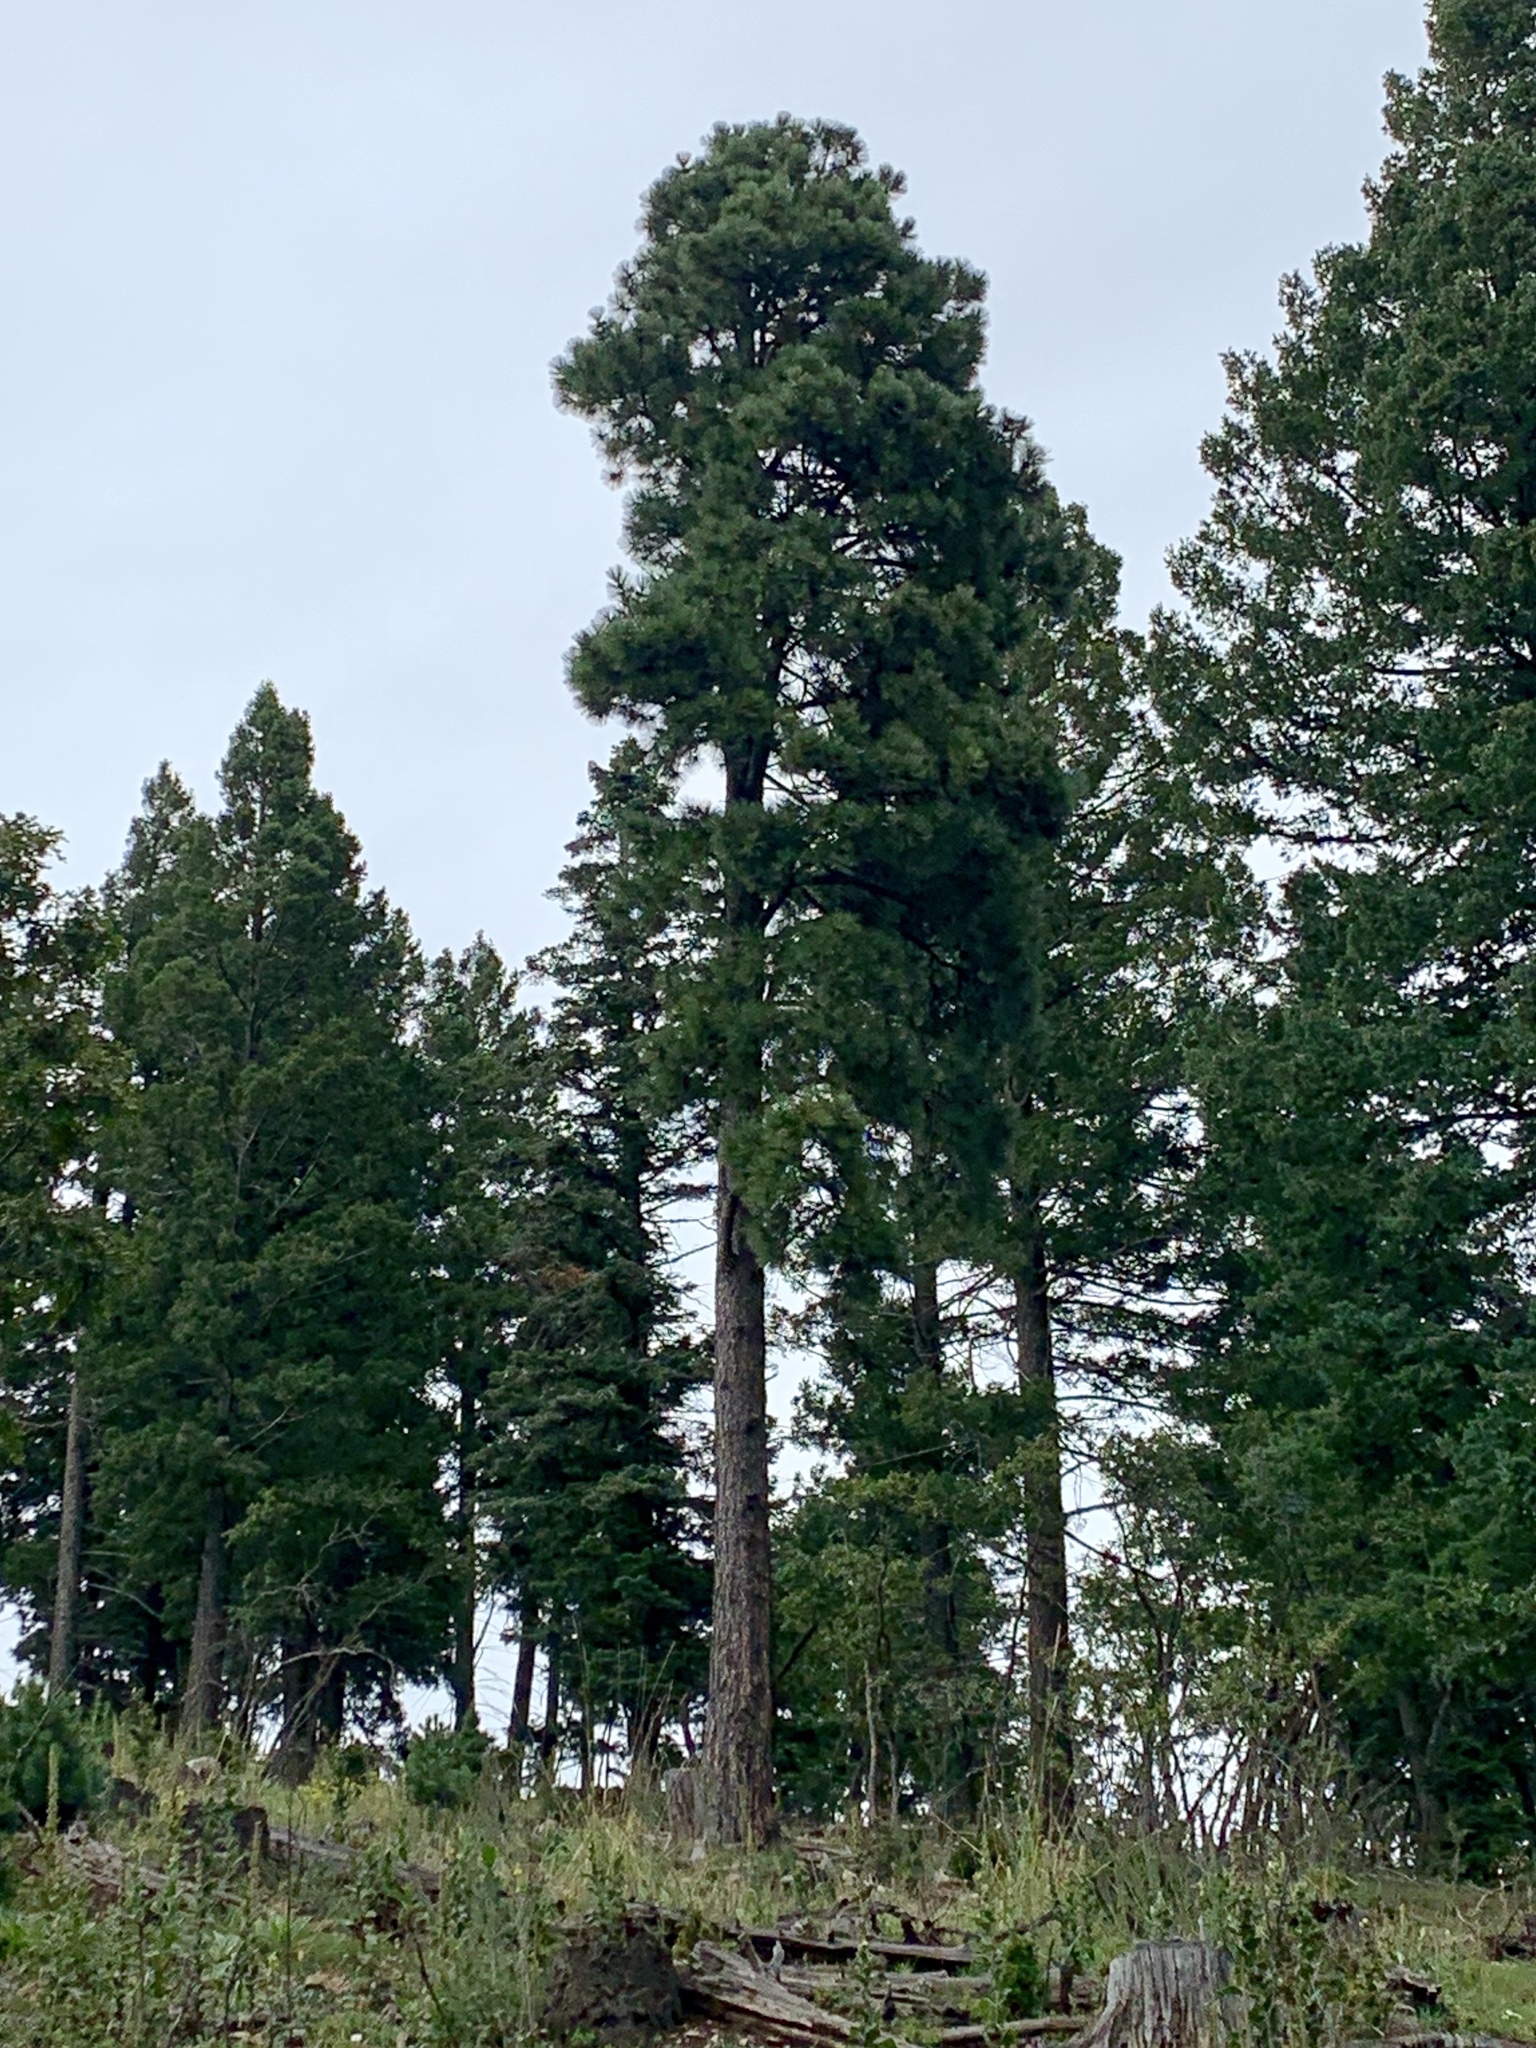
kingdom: Plantae
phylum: Tracheophyta
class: Pinopsida
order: Pinales
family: Pinaceae
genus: Pinus
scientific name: Pinus ponderosa
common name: Western yellow-pine
